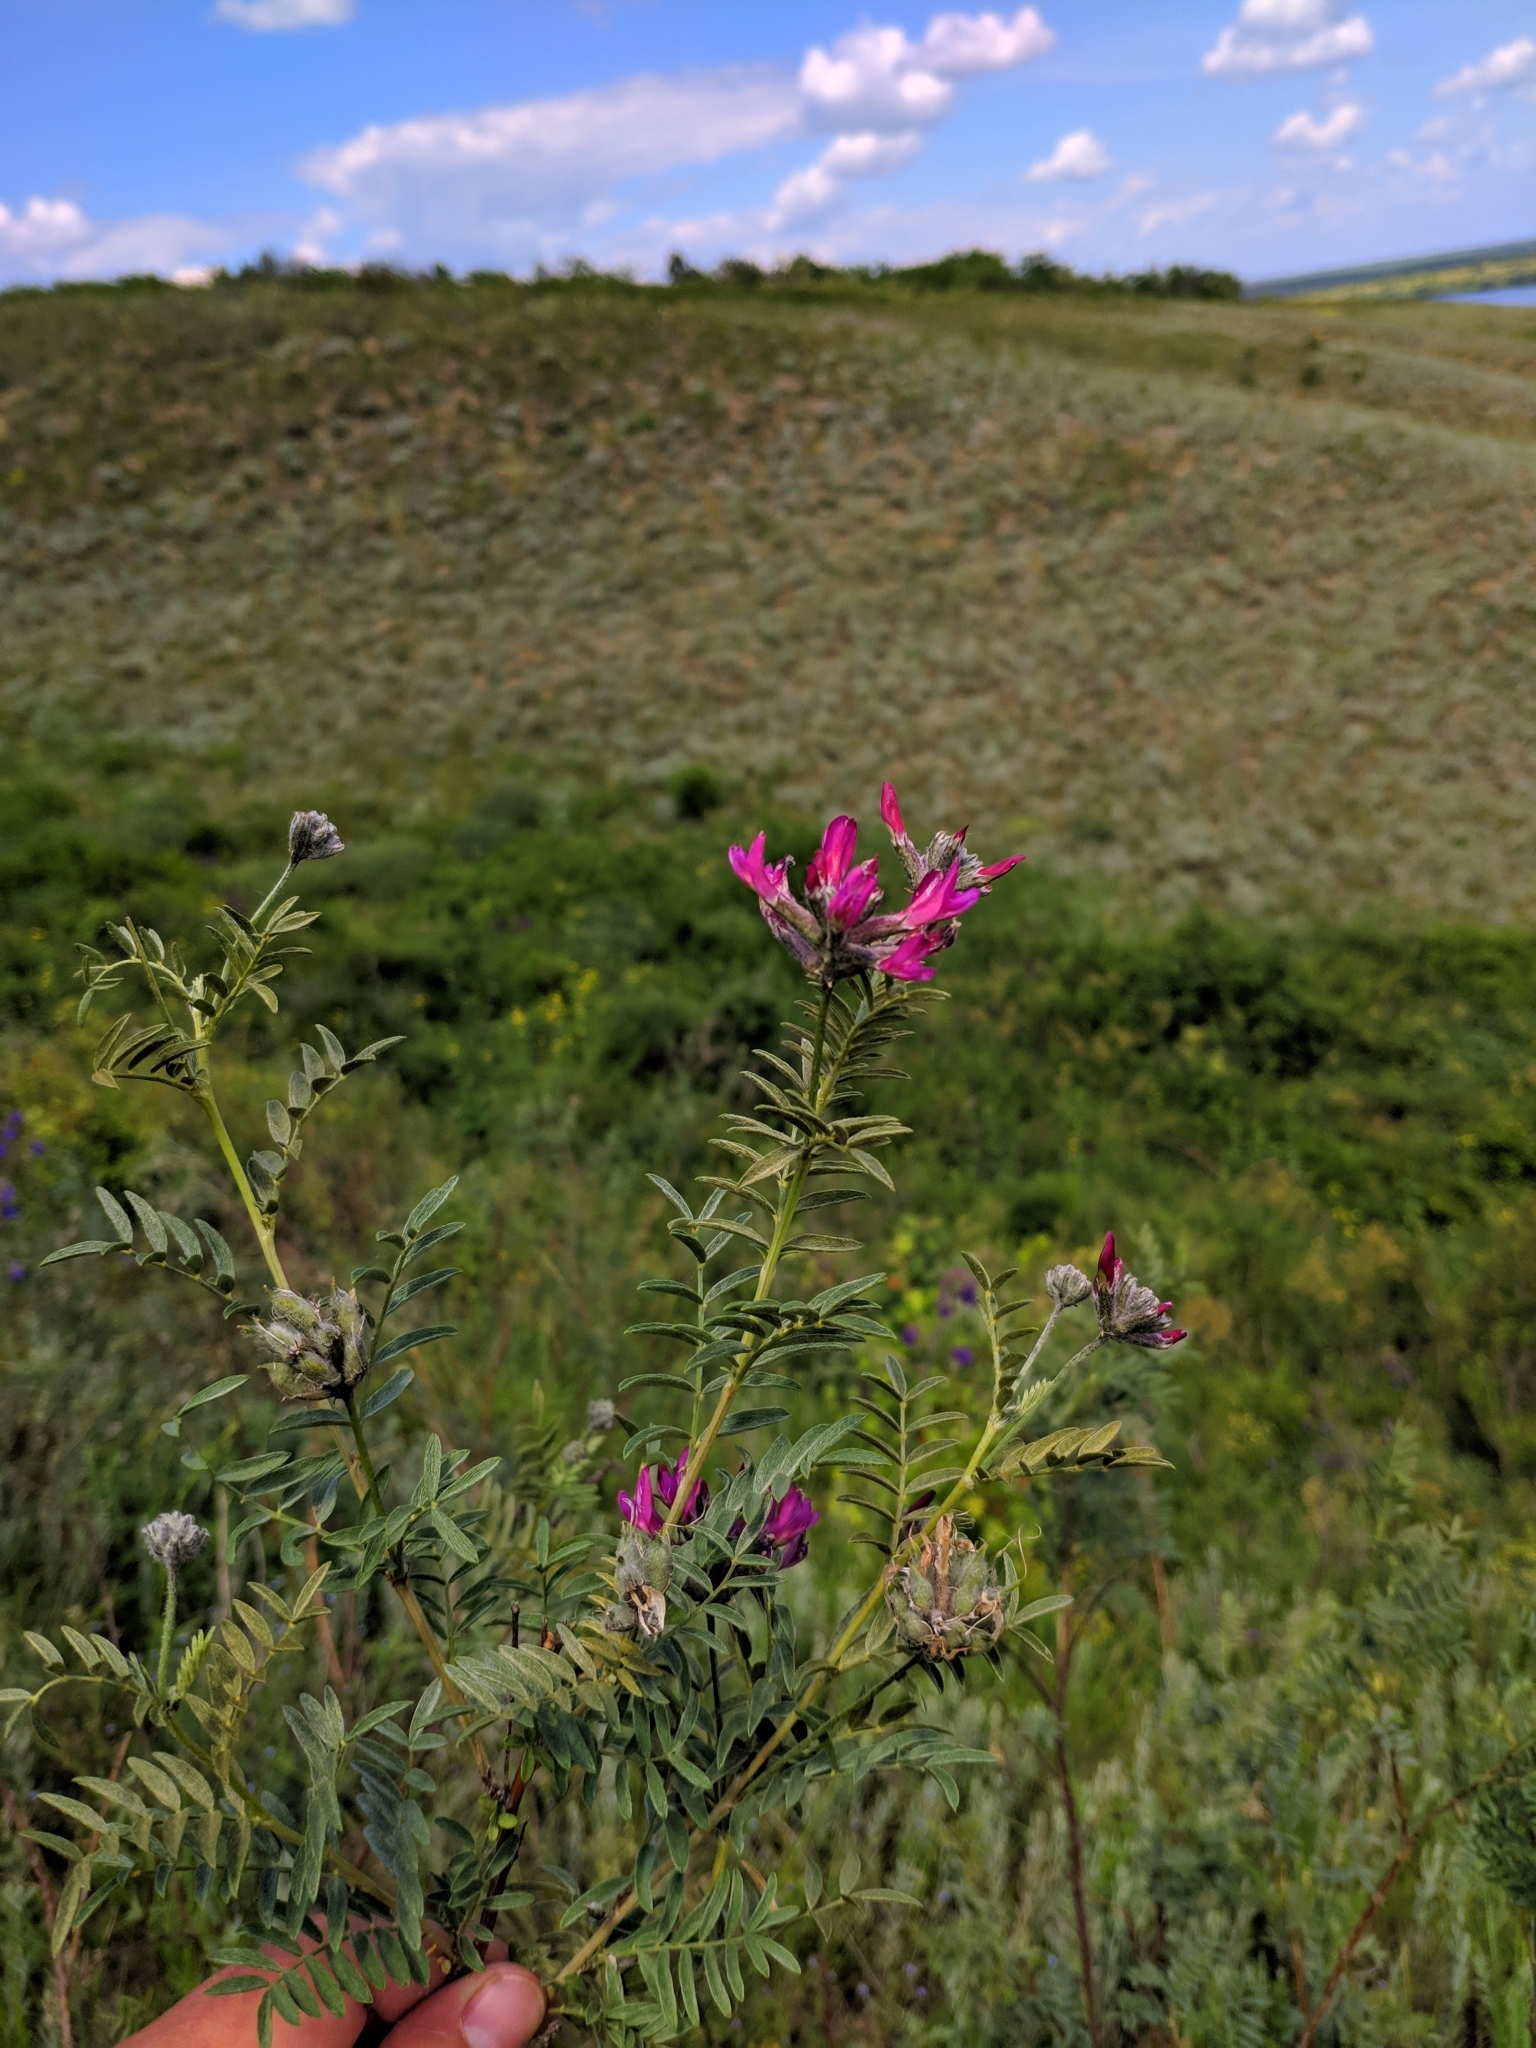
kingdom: Plantae
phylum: Tracheophyta
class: Magnoliopsida
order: Fabales
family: Fabaceae
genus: Astragalus
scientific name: Astragalus cornutus
